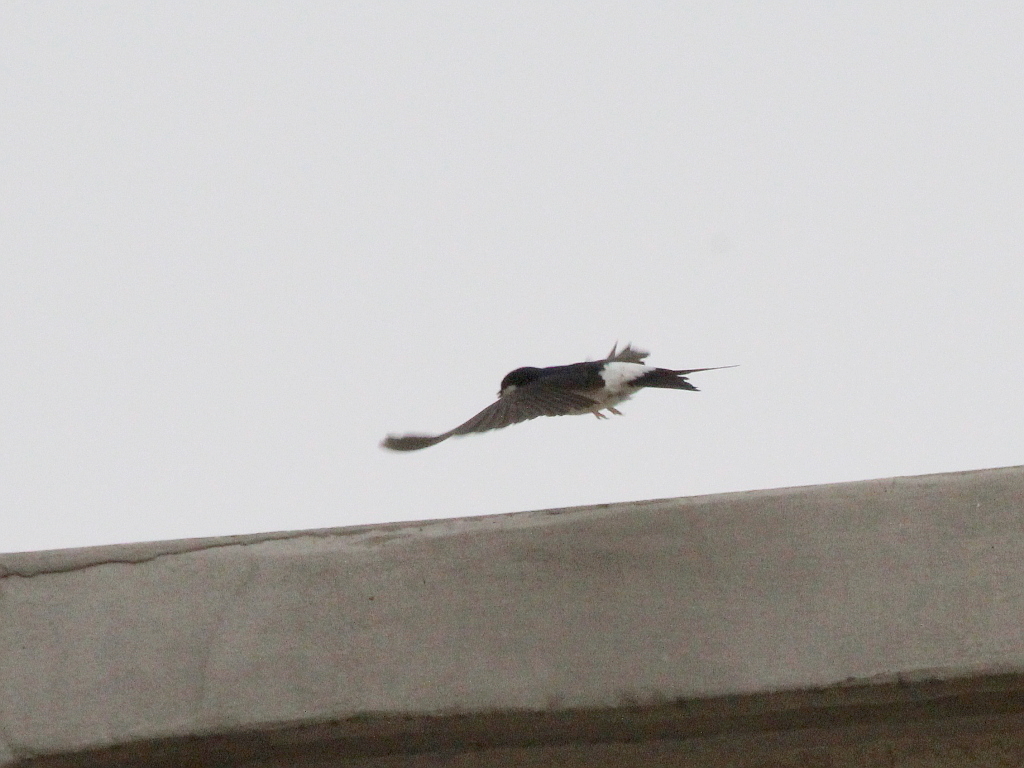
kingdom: Animalia
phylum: Chordata
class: Aves
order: Passeriformes
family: Hirundinidae
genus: Delichon
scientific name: Delichon urbicum
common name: Common house martin
